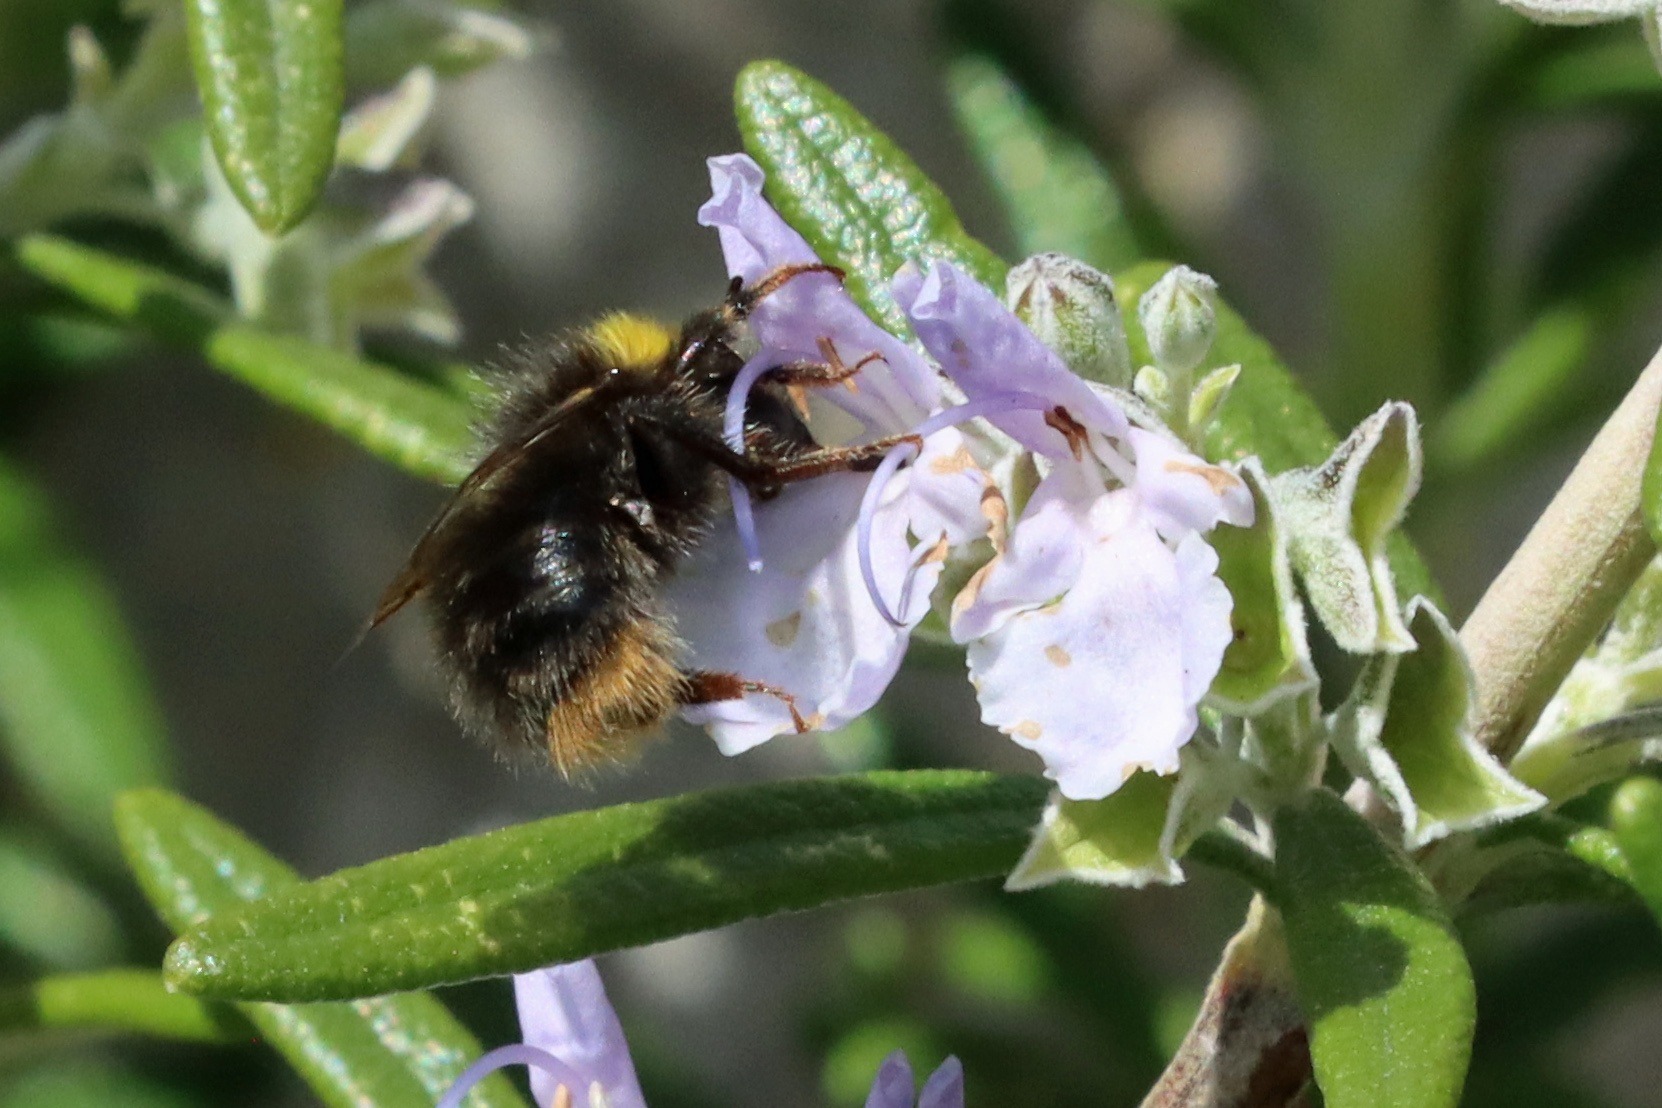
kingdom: Animalia
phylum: Arthropoda
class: Insecta
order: Hymenoptera
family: Apidae
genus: Bombus
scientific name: Bombus pratorum
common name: Early humble-bee
